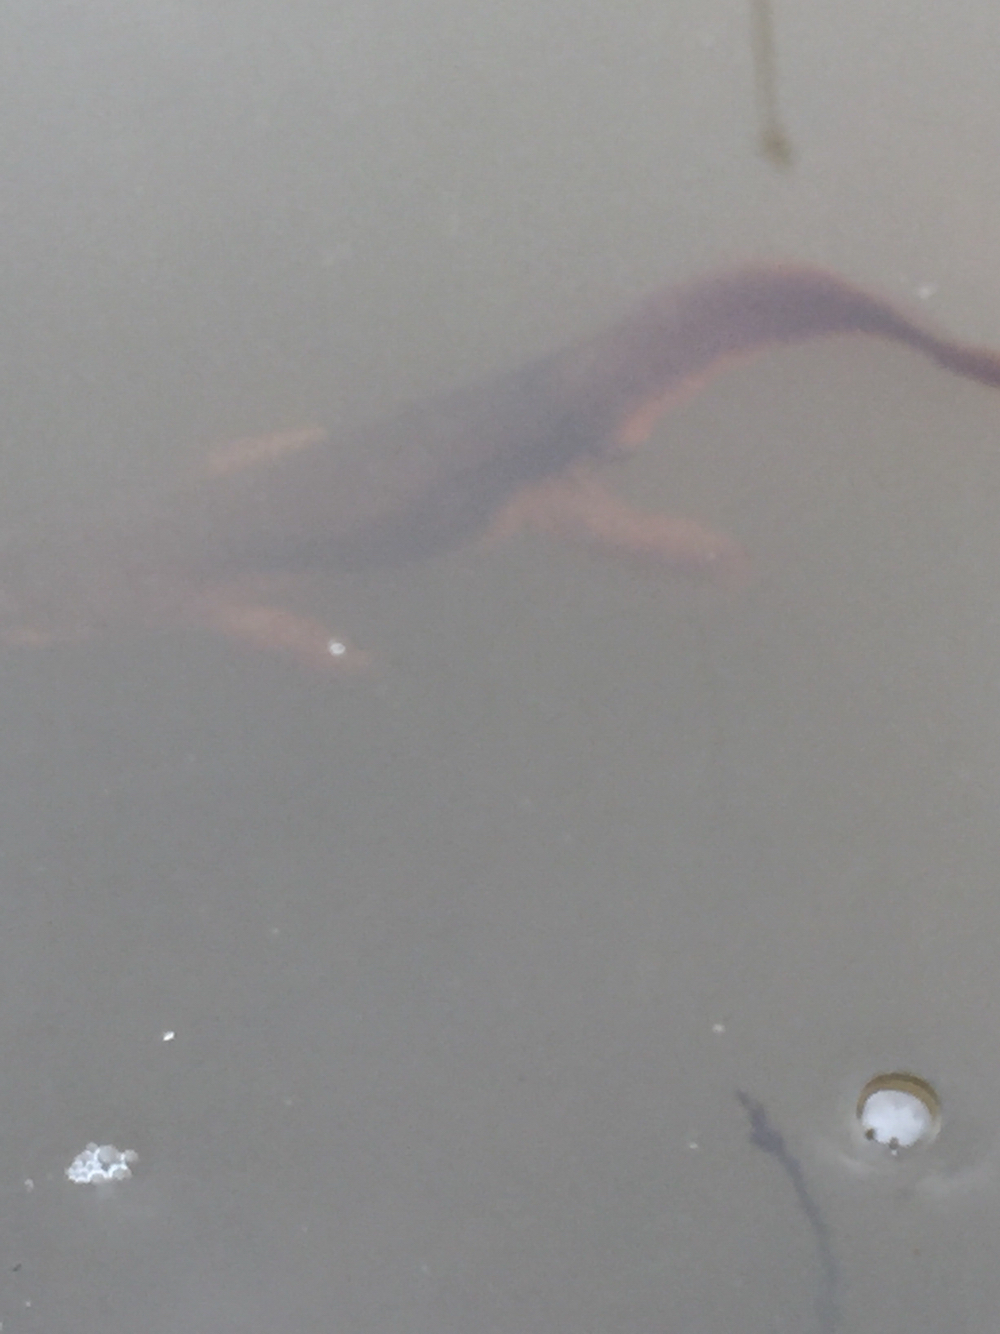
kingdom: Animalia
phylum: Chordata
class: Amphibia
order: Caudata
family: Salamandridae
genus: Taricha
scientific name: Taricha torosa
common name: California newt
